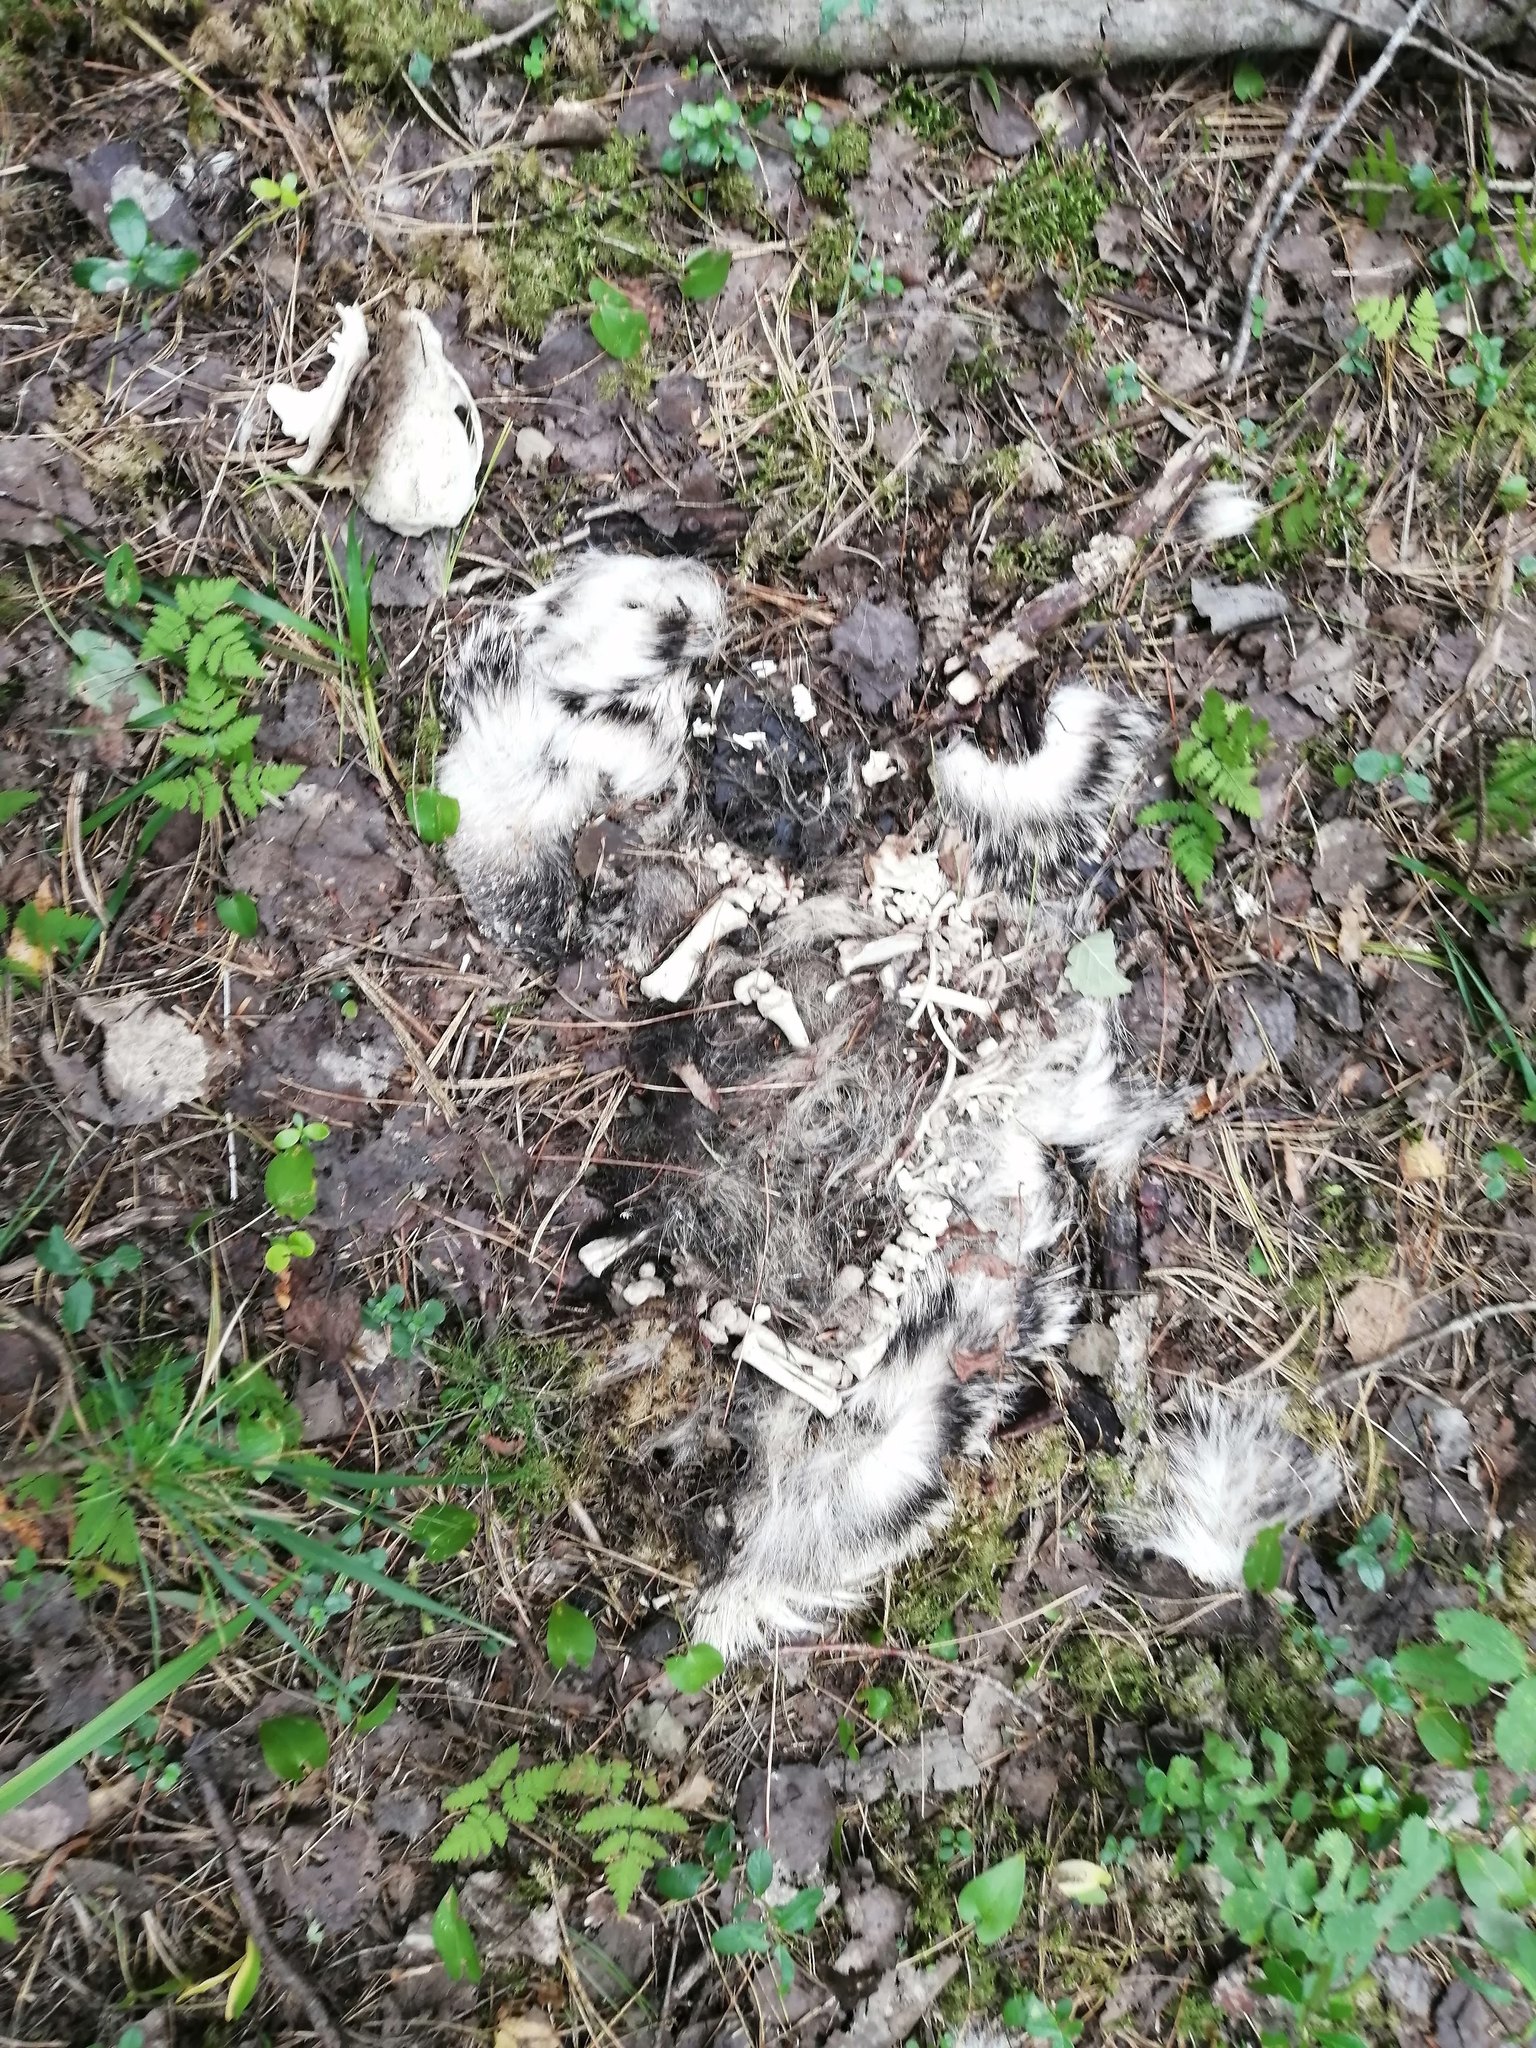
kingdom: Animalia
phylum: Chordata
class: Mammalia
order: Carnivora
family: Mustelidae
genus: Meles
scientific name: Meles leucurus
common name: Asian badger
